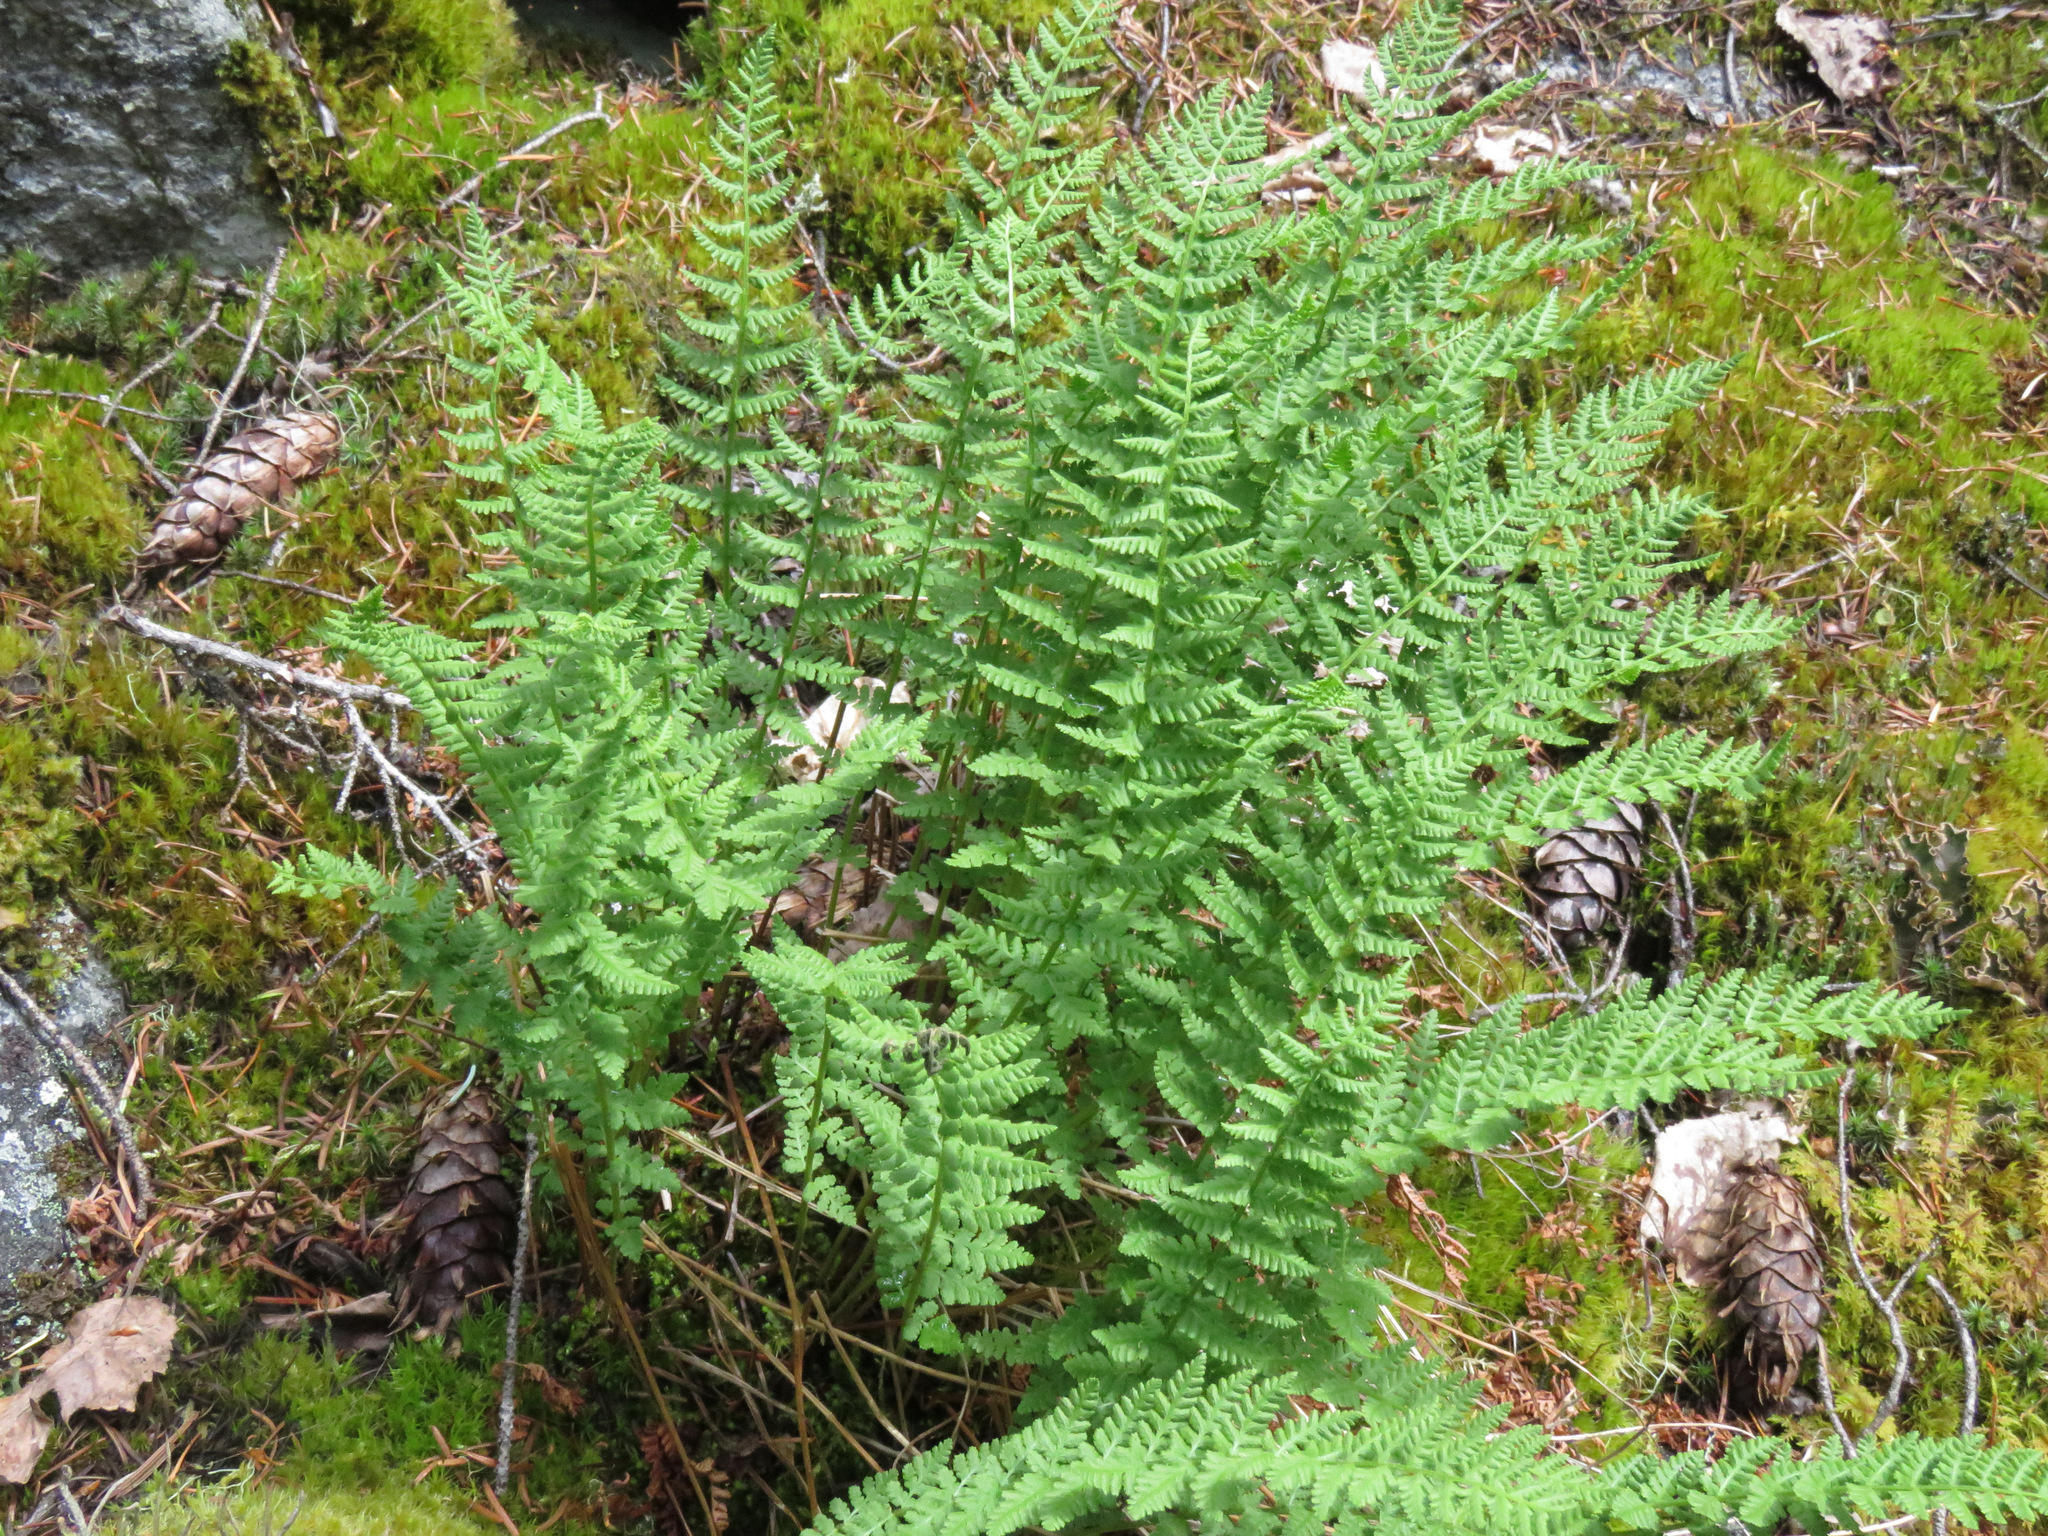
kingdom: Plantae
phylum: Tracheophyta
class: Polypodiopsida
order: Polypodiales
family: Woodsiaceae
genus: Physematium
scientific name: Physematium scopulinum
